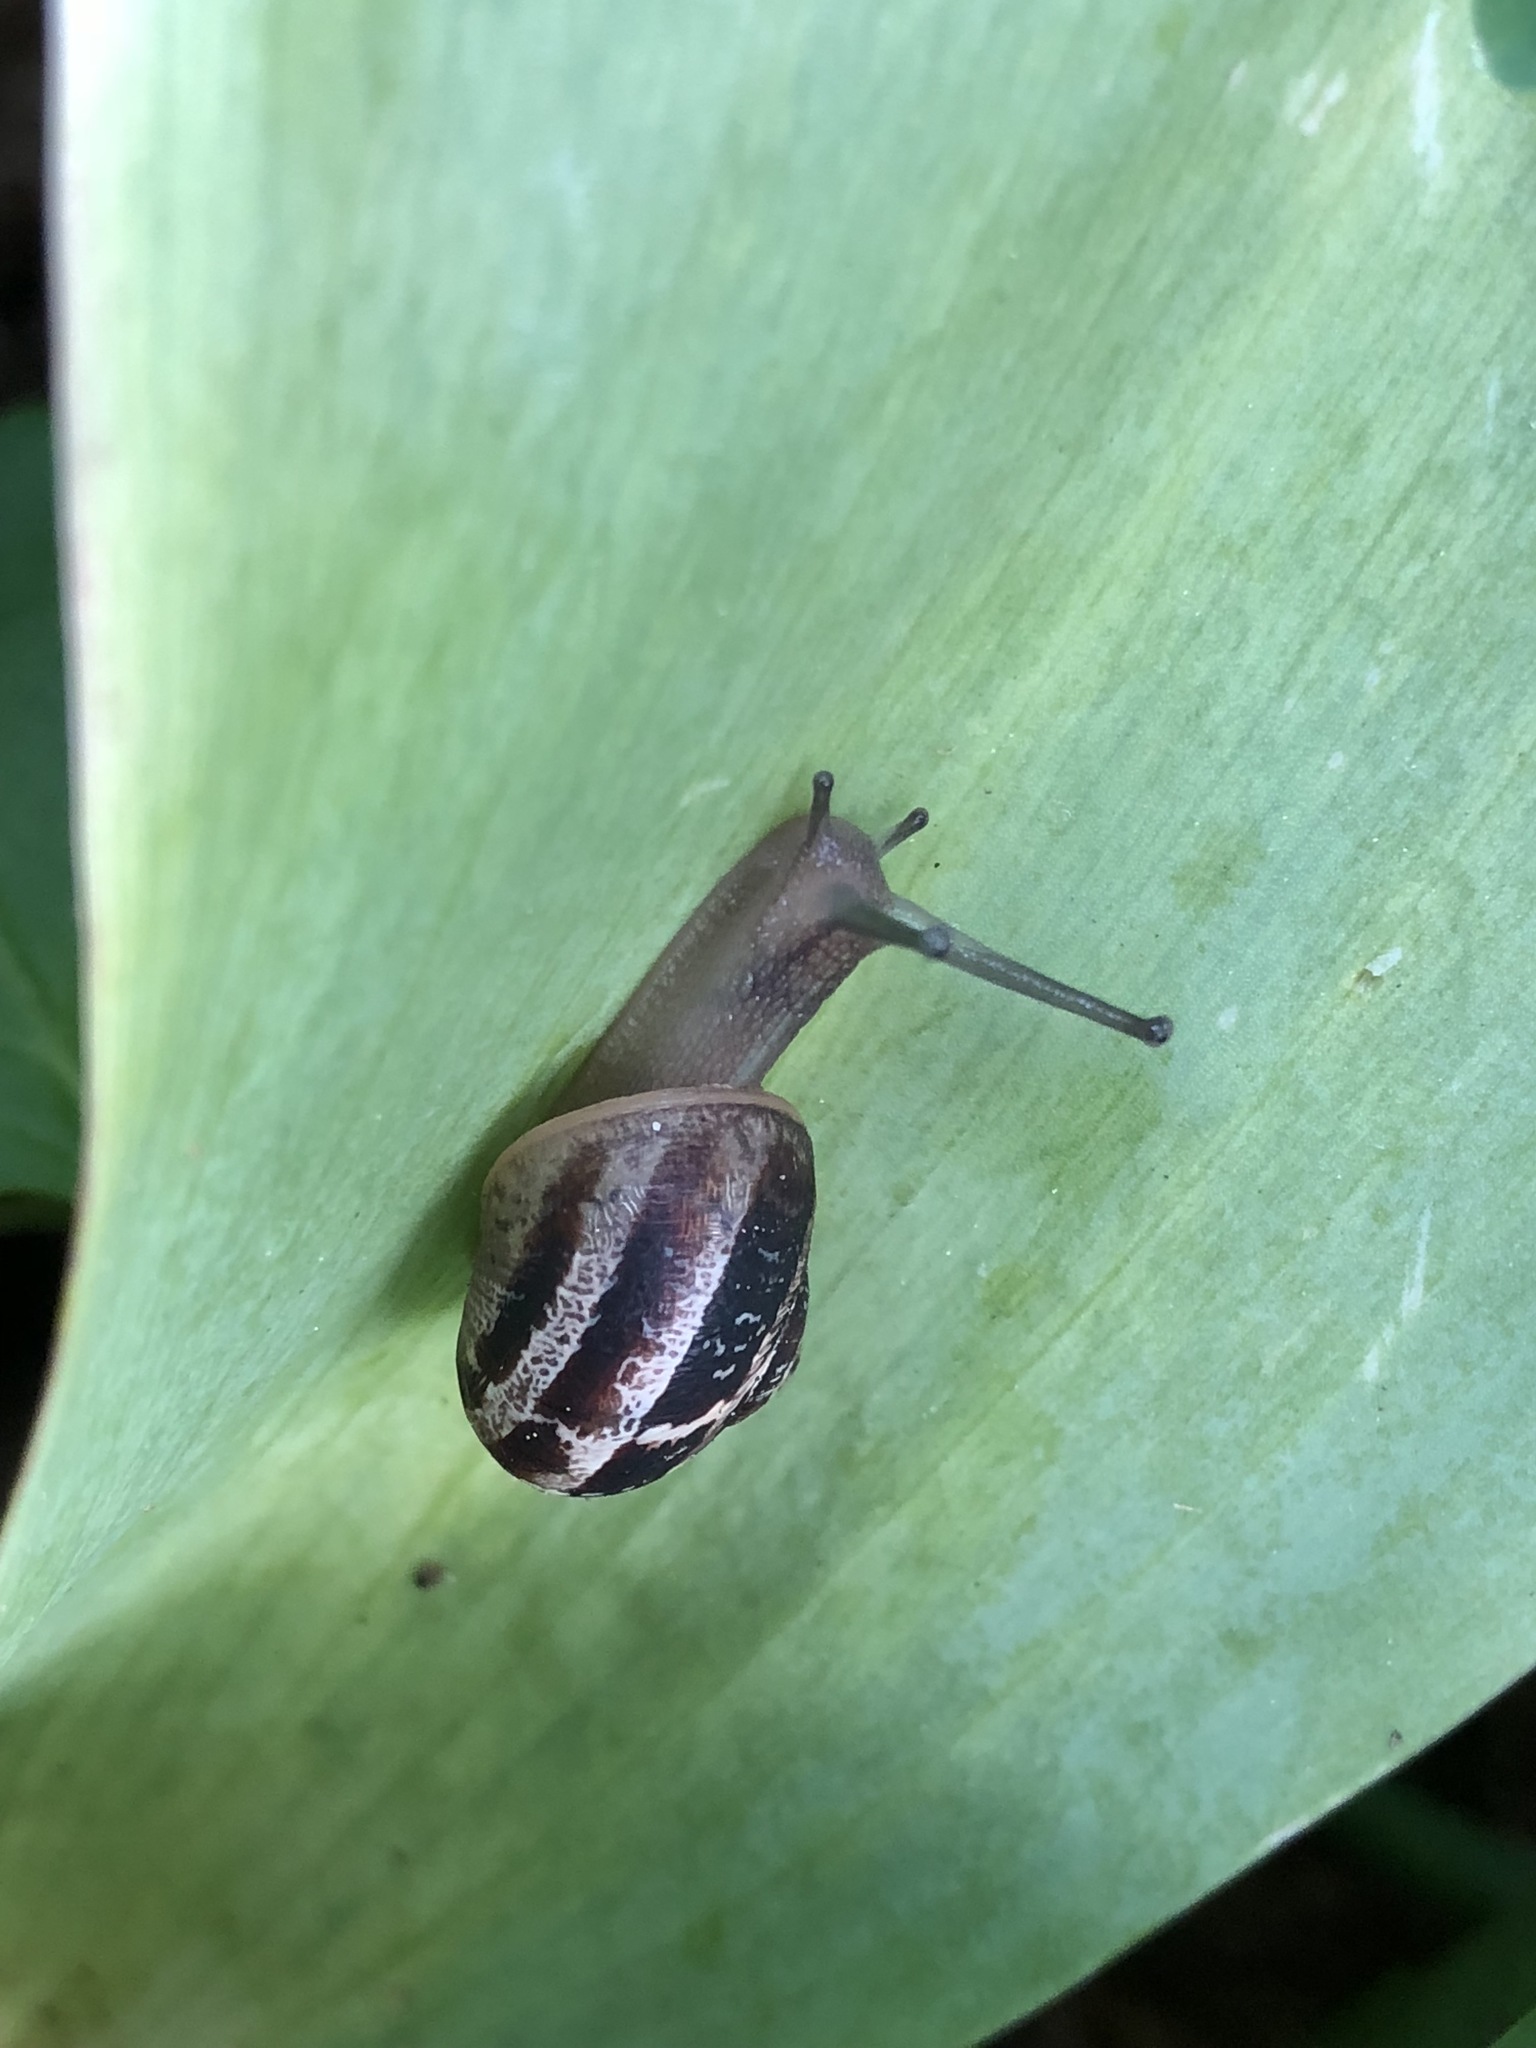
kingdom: Animalia
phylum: Mollusca
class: Gastropoda
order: Stylommatophora
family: Helicidae
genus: Cornu
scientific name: Cornu aspersum
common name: Brown garden snail
